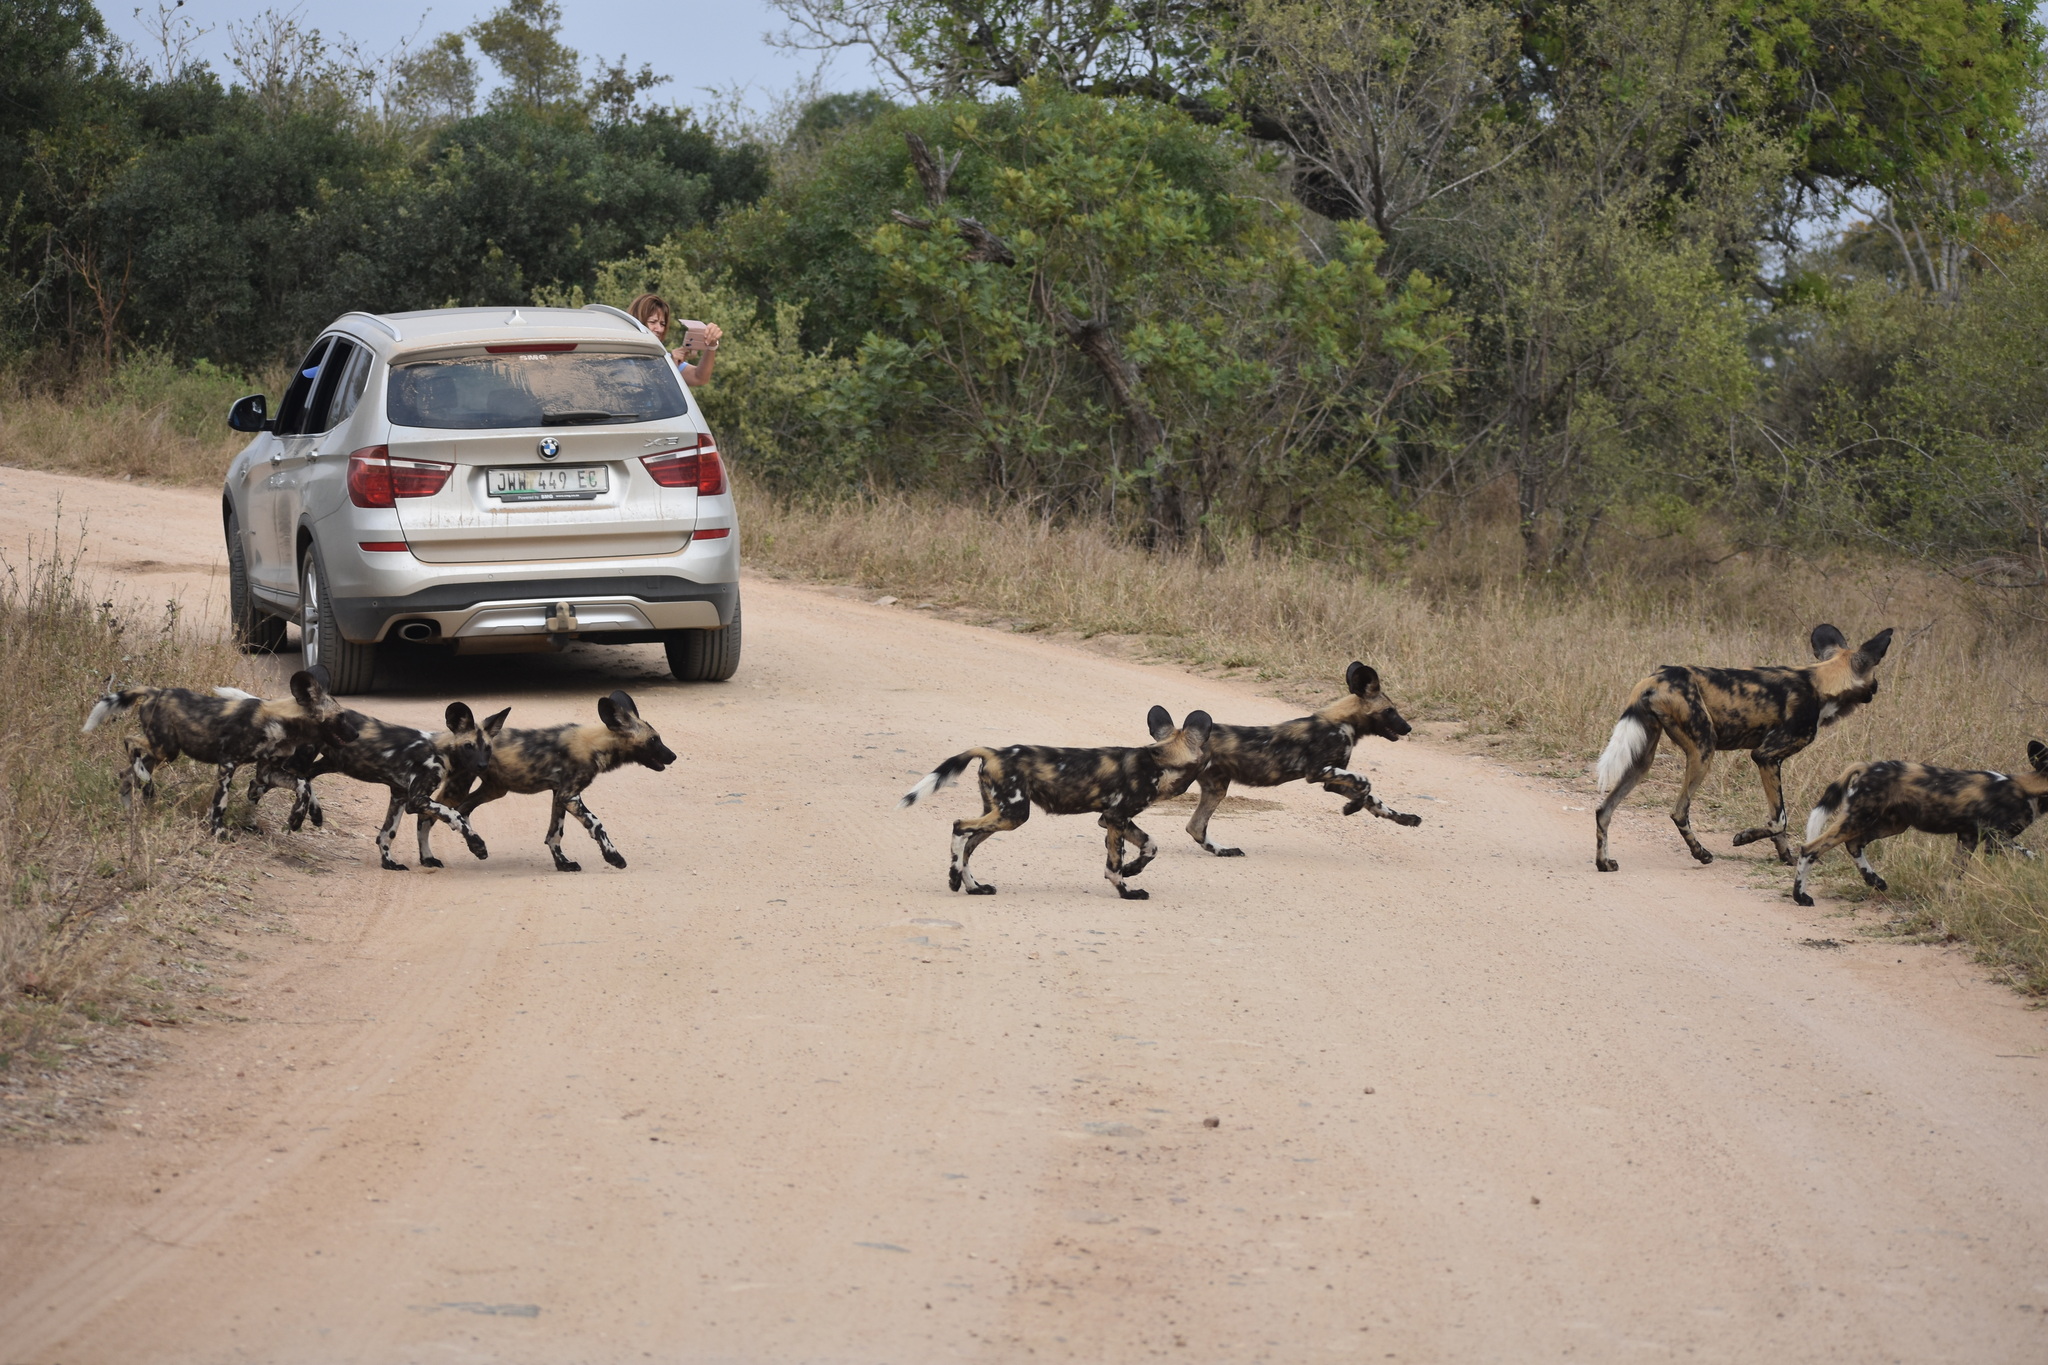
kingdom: Animalia
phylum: Chordata
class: Mammalia
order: Carnivora
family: Canidae
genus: Lycaon
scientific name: Lycaon pictus
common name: African wild dog
